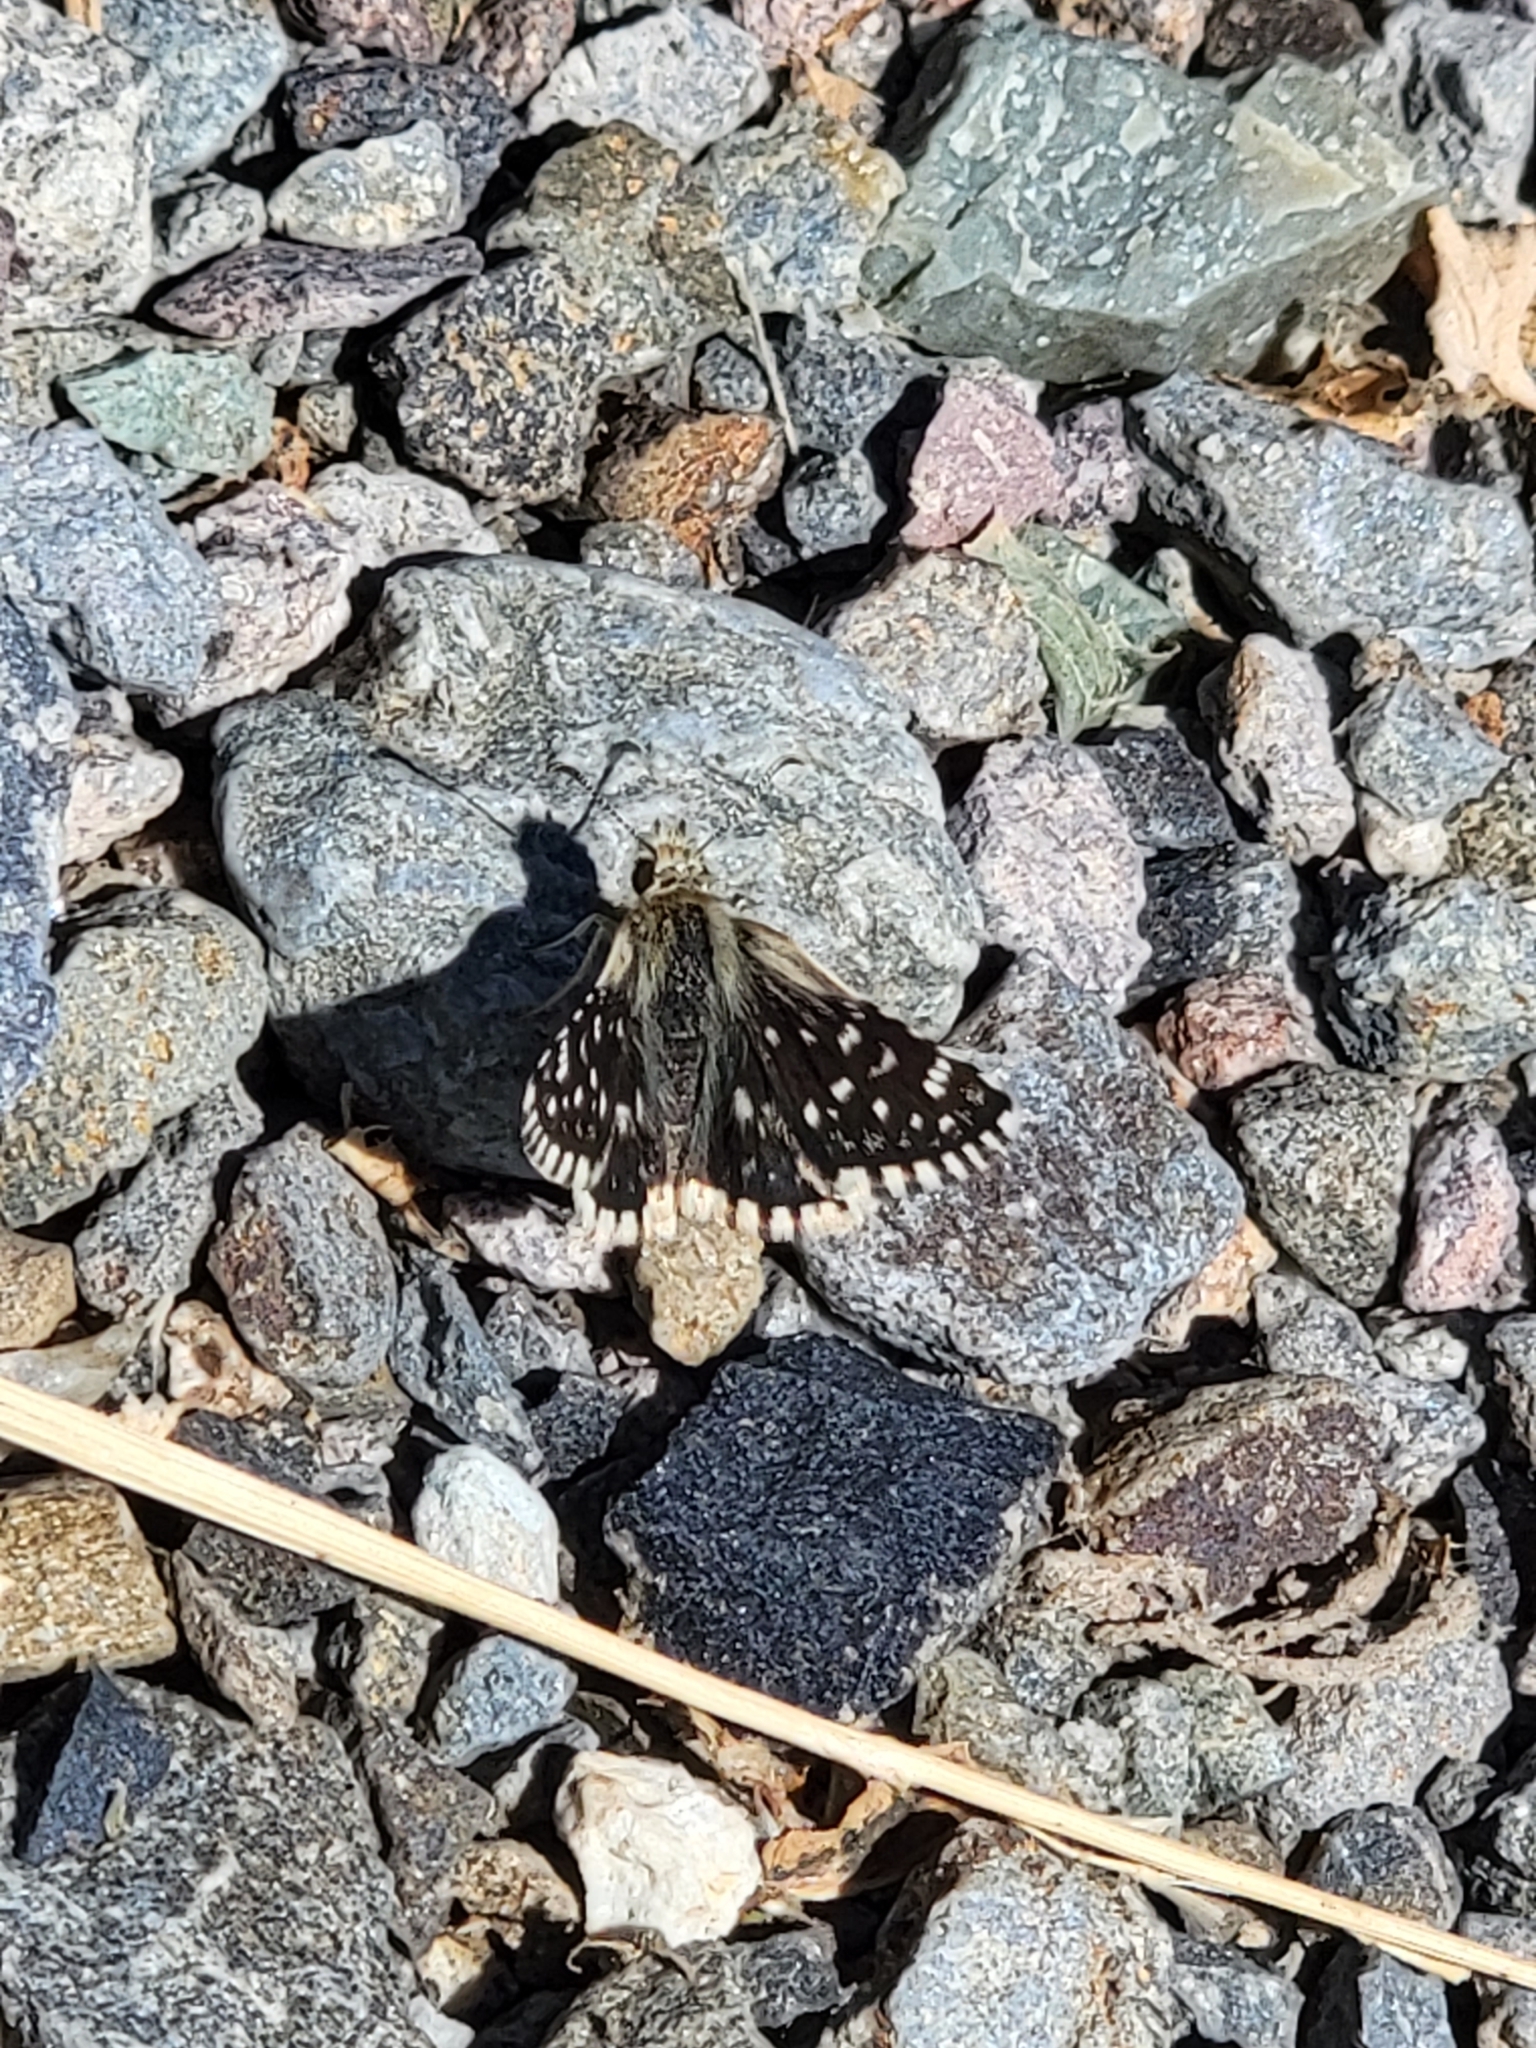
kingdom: Animalia
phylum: Arthropoda
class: Insecta
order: Lepidoptera
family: Hesperiidae
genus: Pyrgus
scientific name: Pyrgus scriptura
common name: Small checkered-skipper
